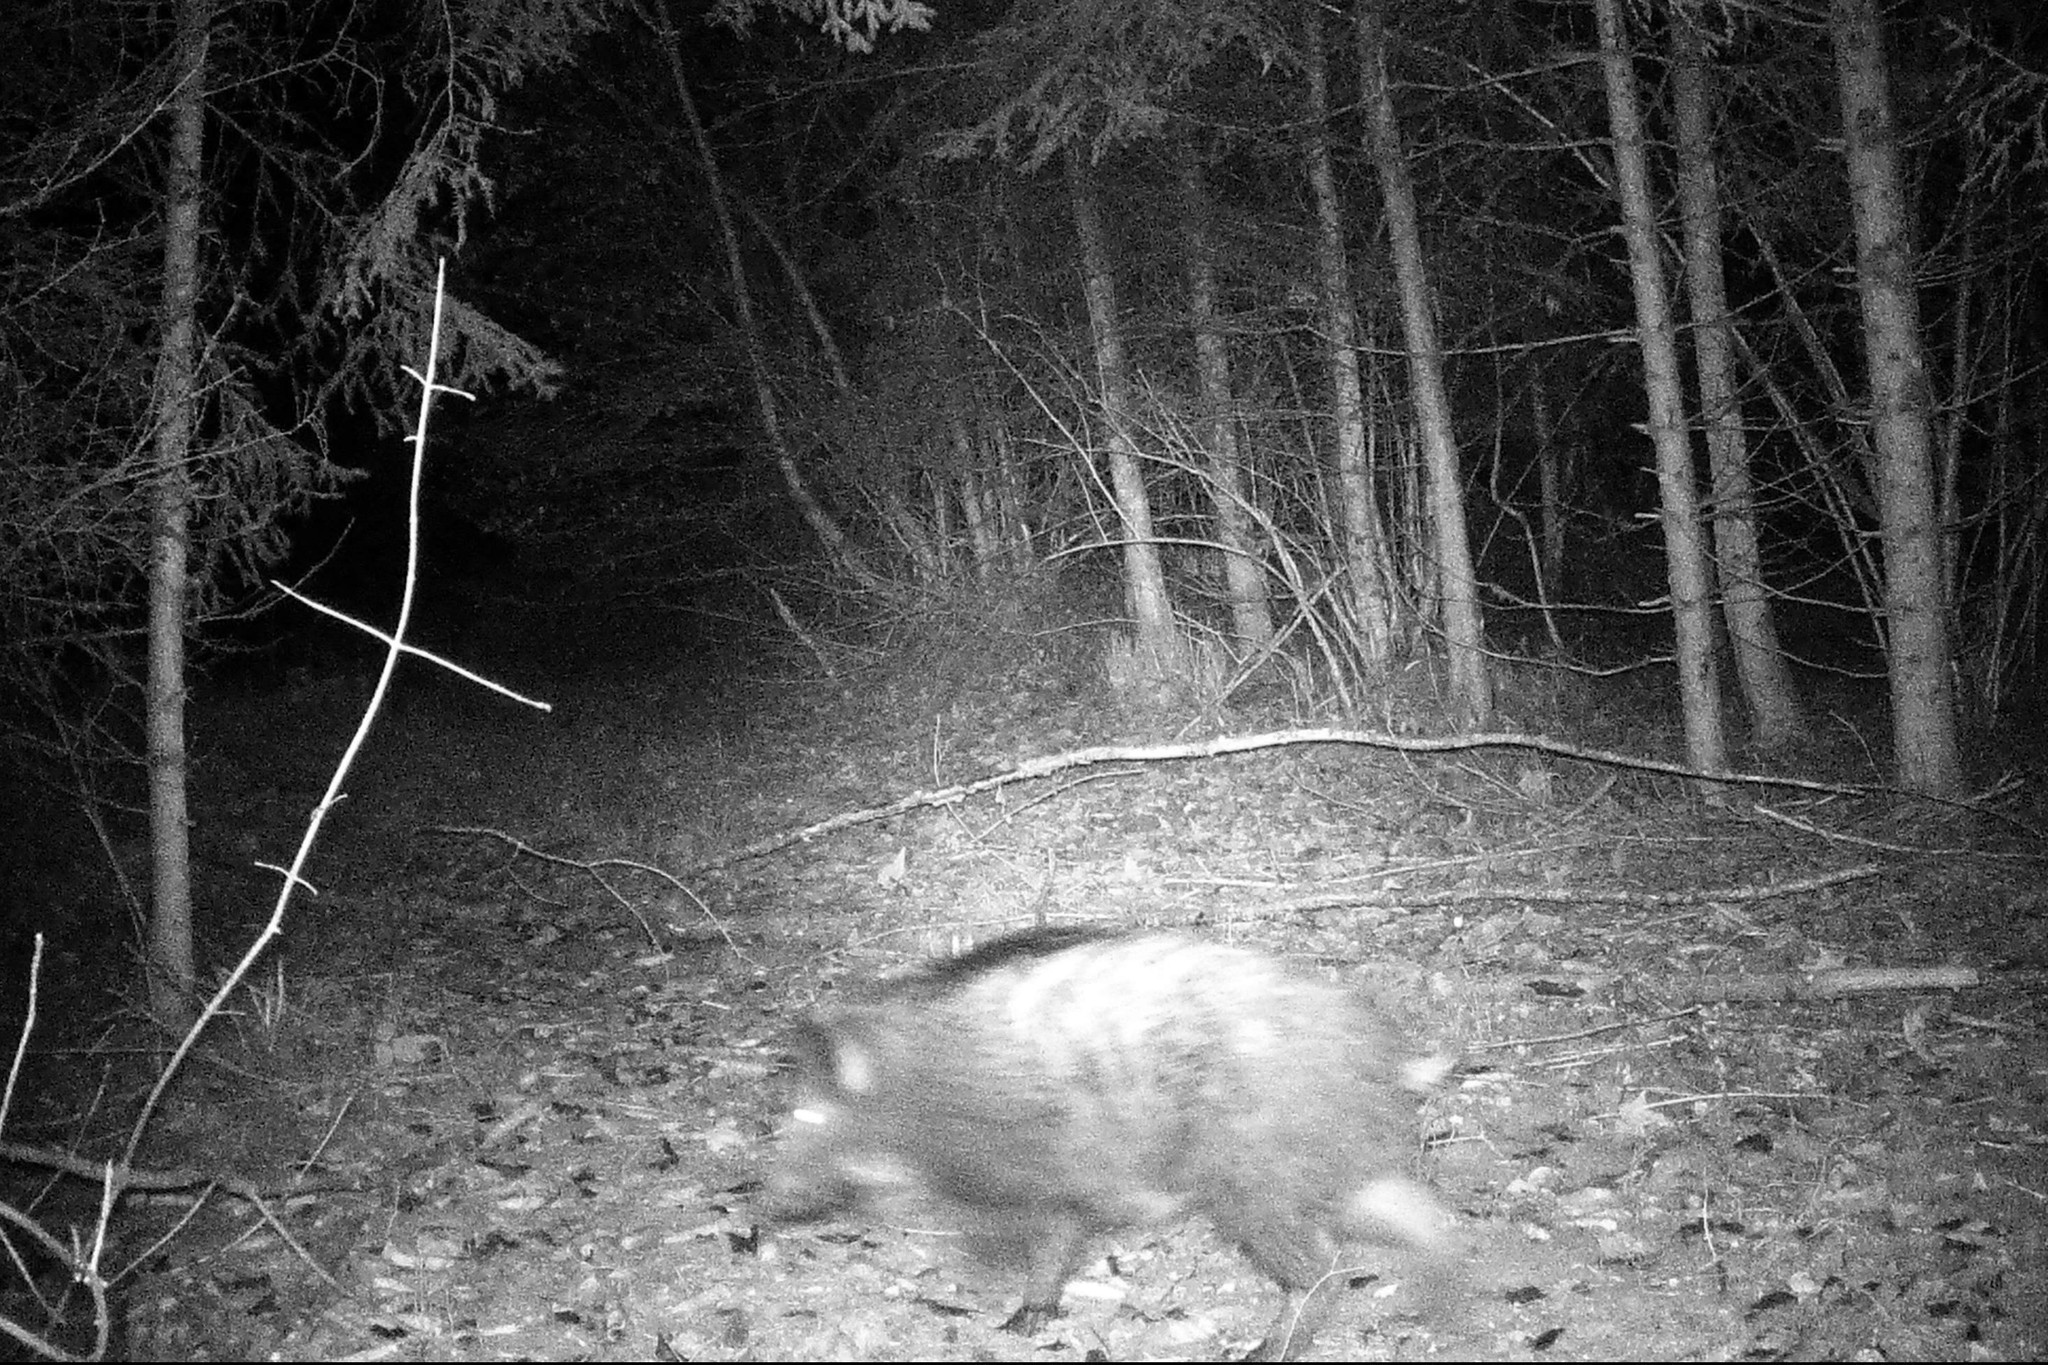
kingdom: Animalia
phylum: Chordata
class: Mammalia
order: Artiodactyla
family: Suidae
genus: Sus
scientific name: Sus scrofa
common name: Wild boar
